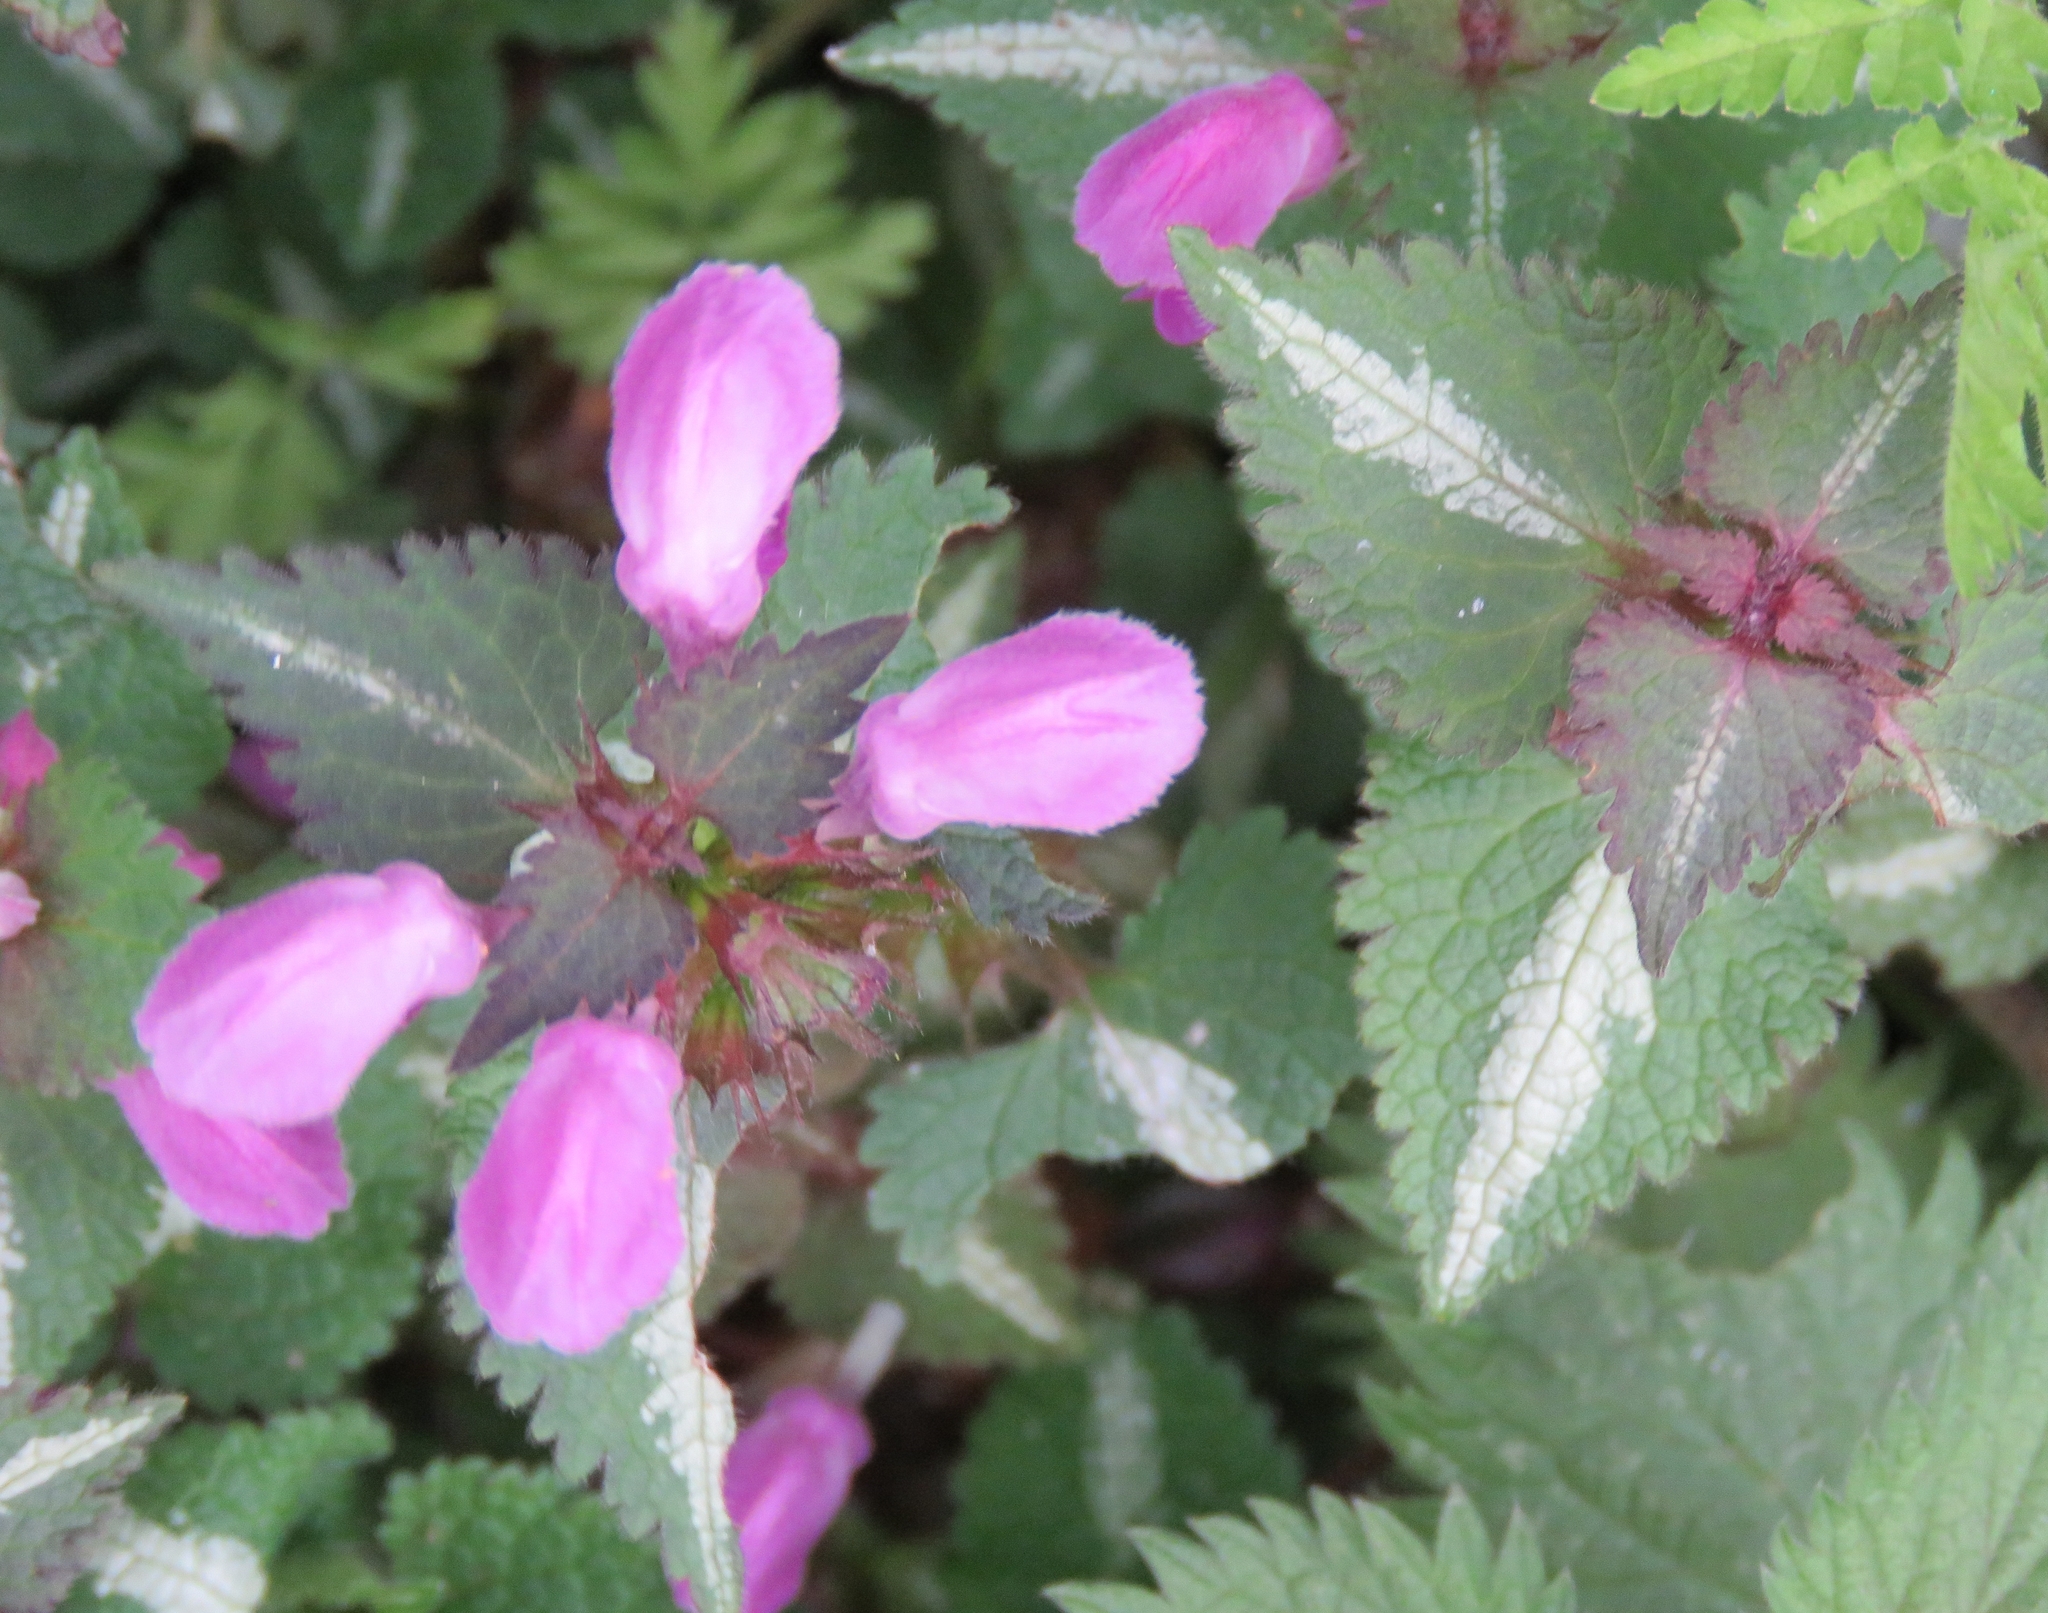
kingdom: Plantae
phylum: Tracheophyta
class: Magnoliopsida
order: Lamiales
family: Lamiaceae
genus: Lamium
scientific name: Lamium maculatum
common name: Spotted dead-nettle
